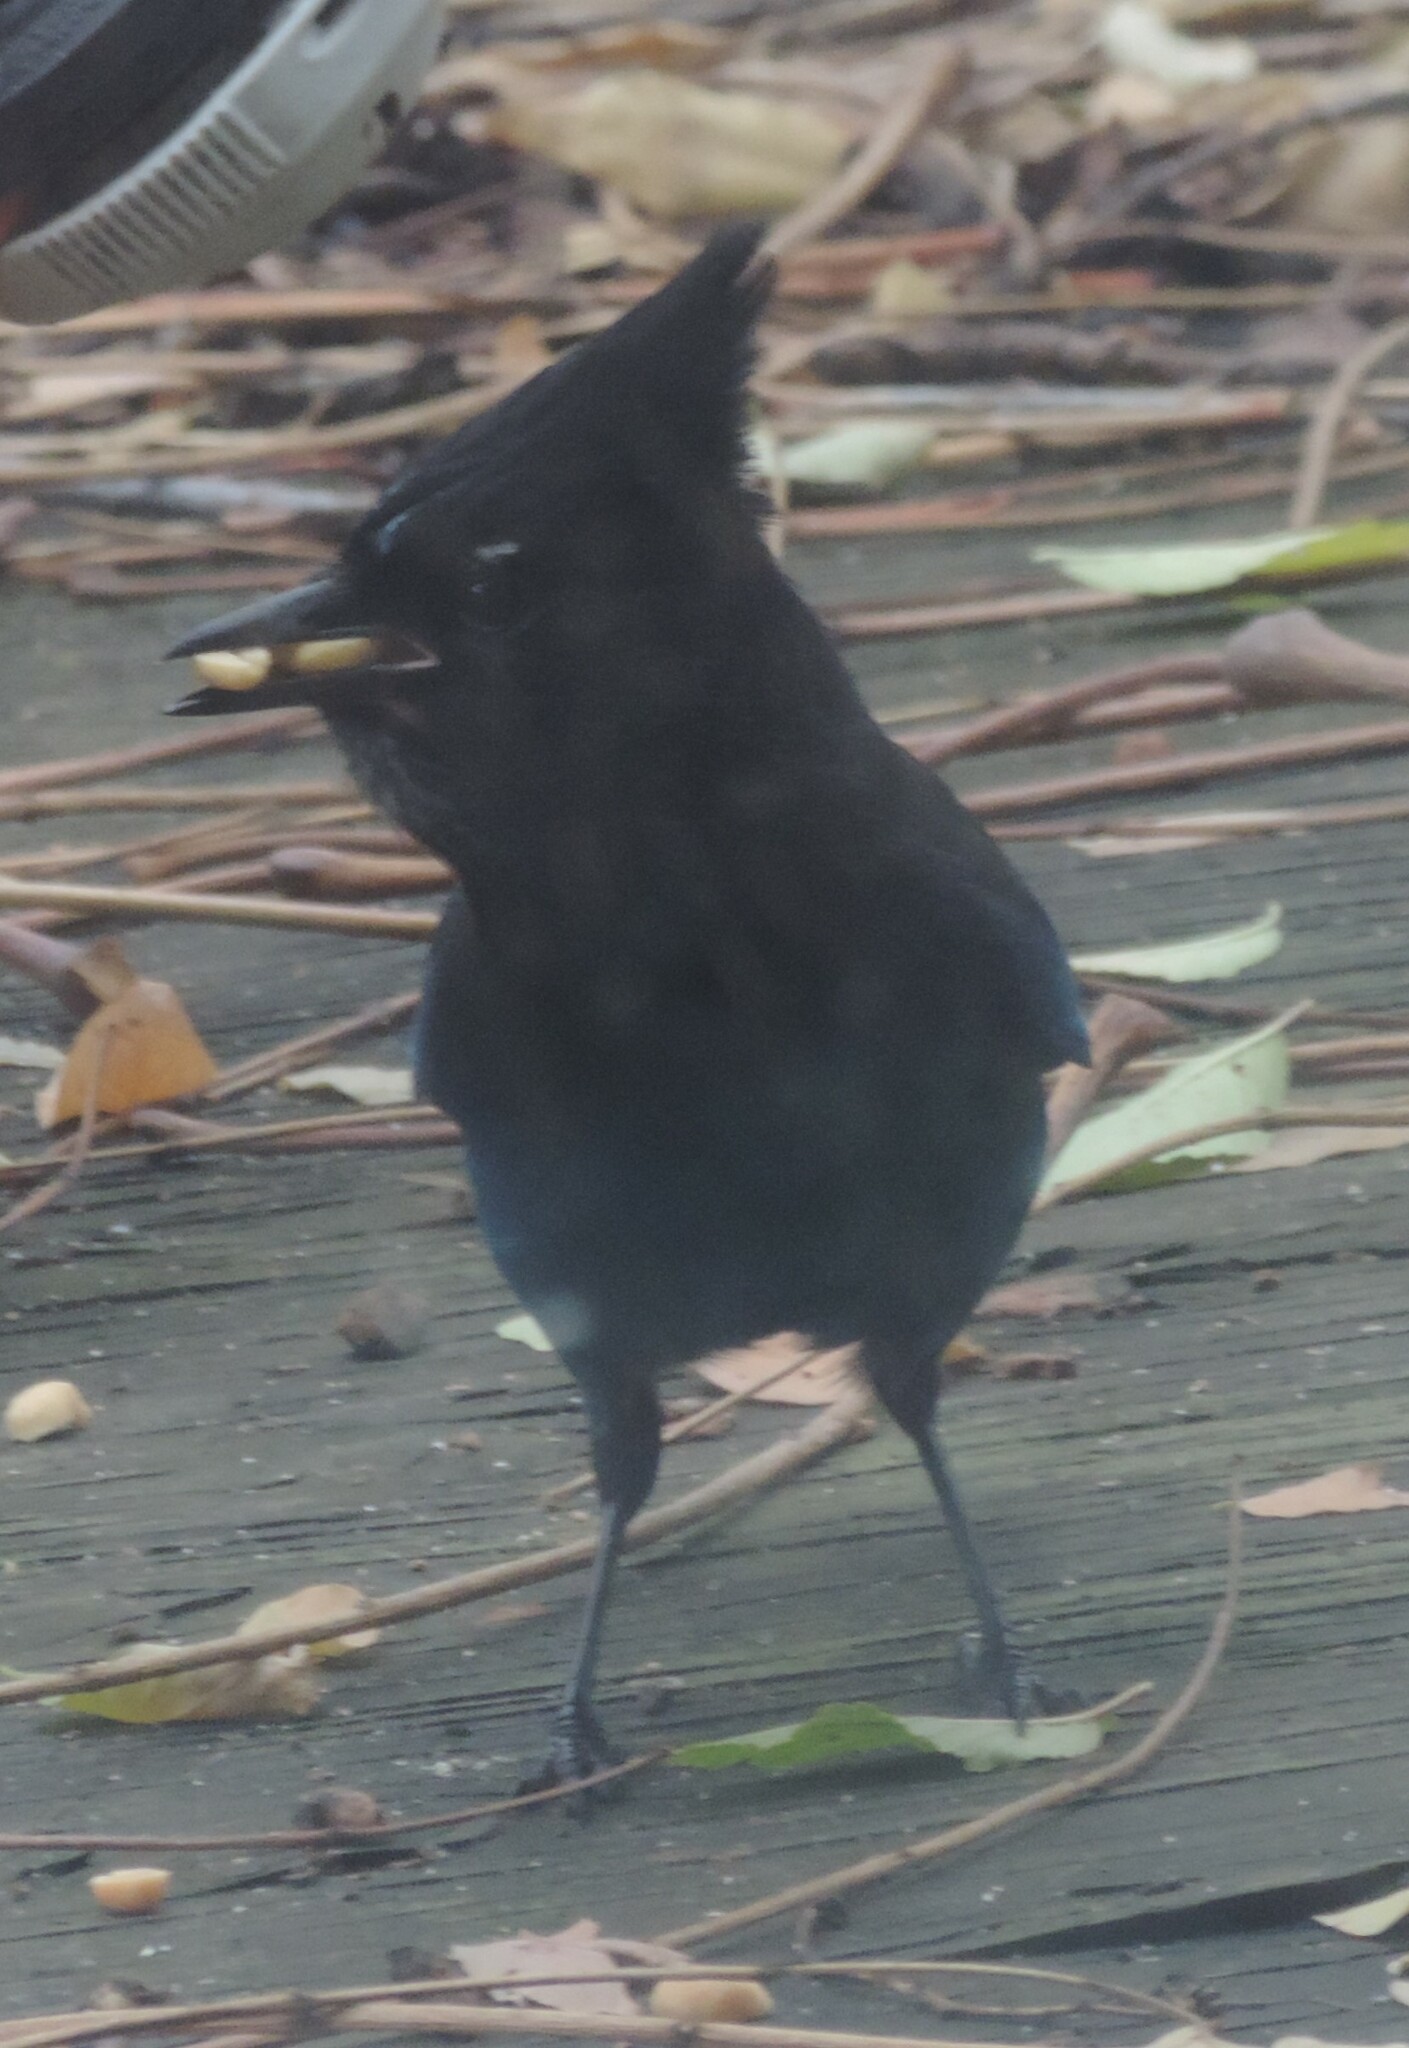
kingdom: Animalia
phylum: Chordata
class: Aves
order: Passeriformes
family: Corvidae
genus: Cyanocitta
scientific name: Cyanocitta stelleri
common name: Steller's jay
